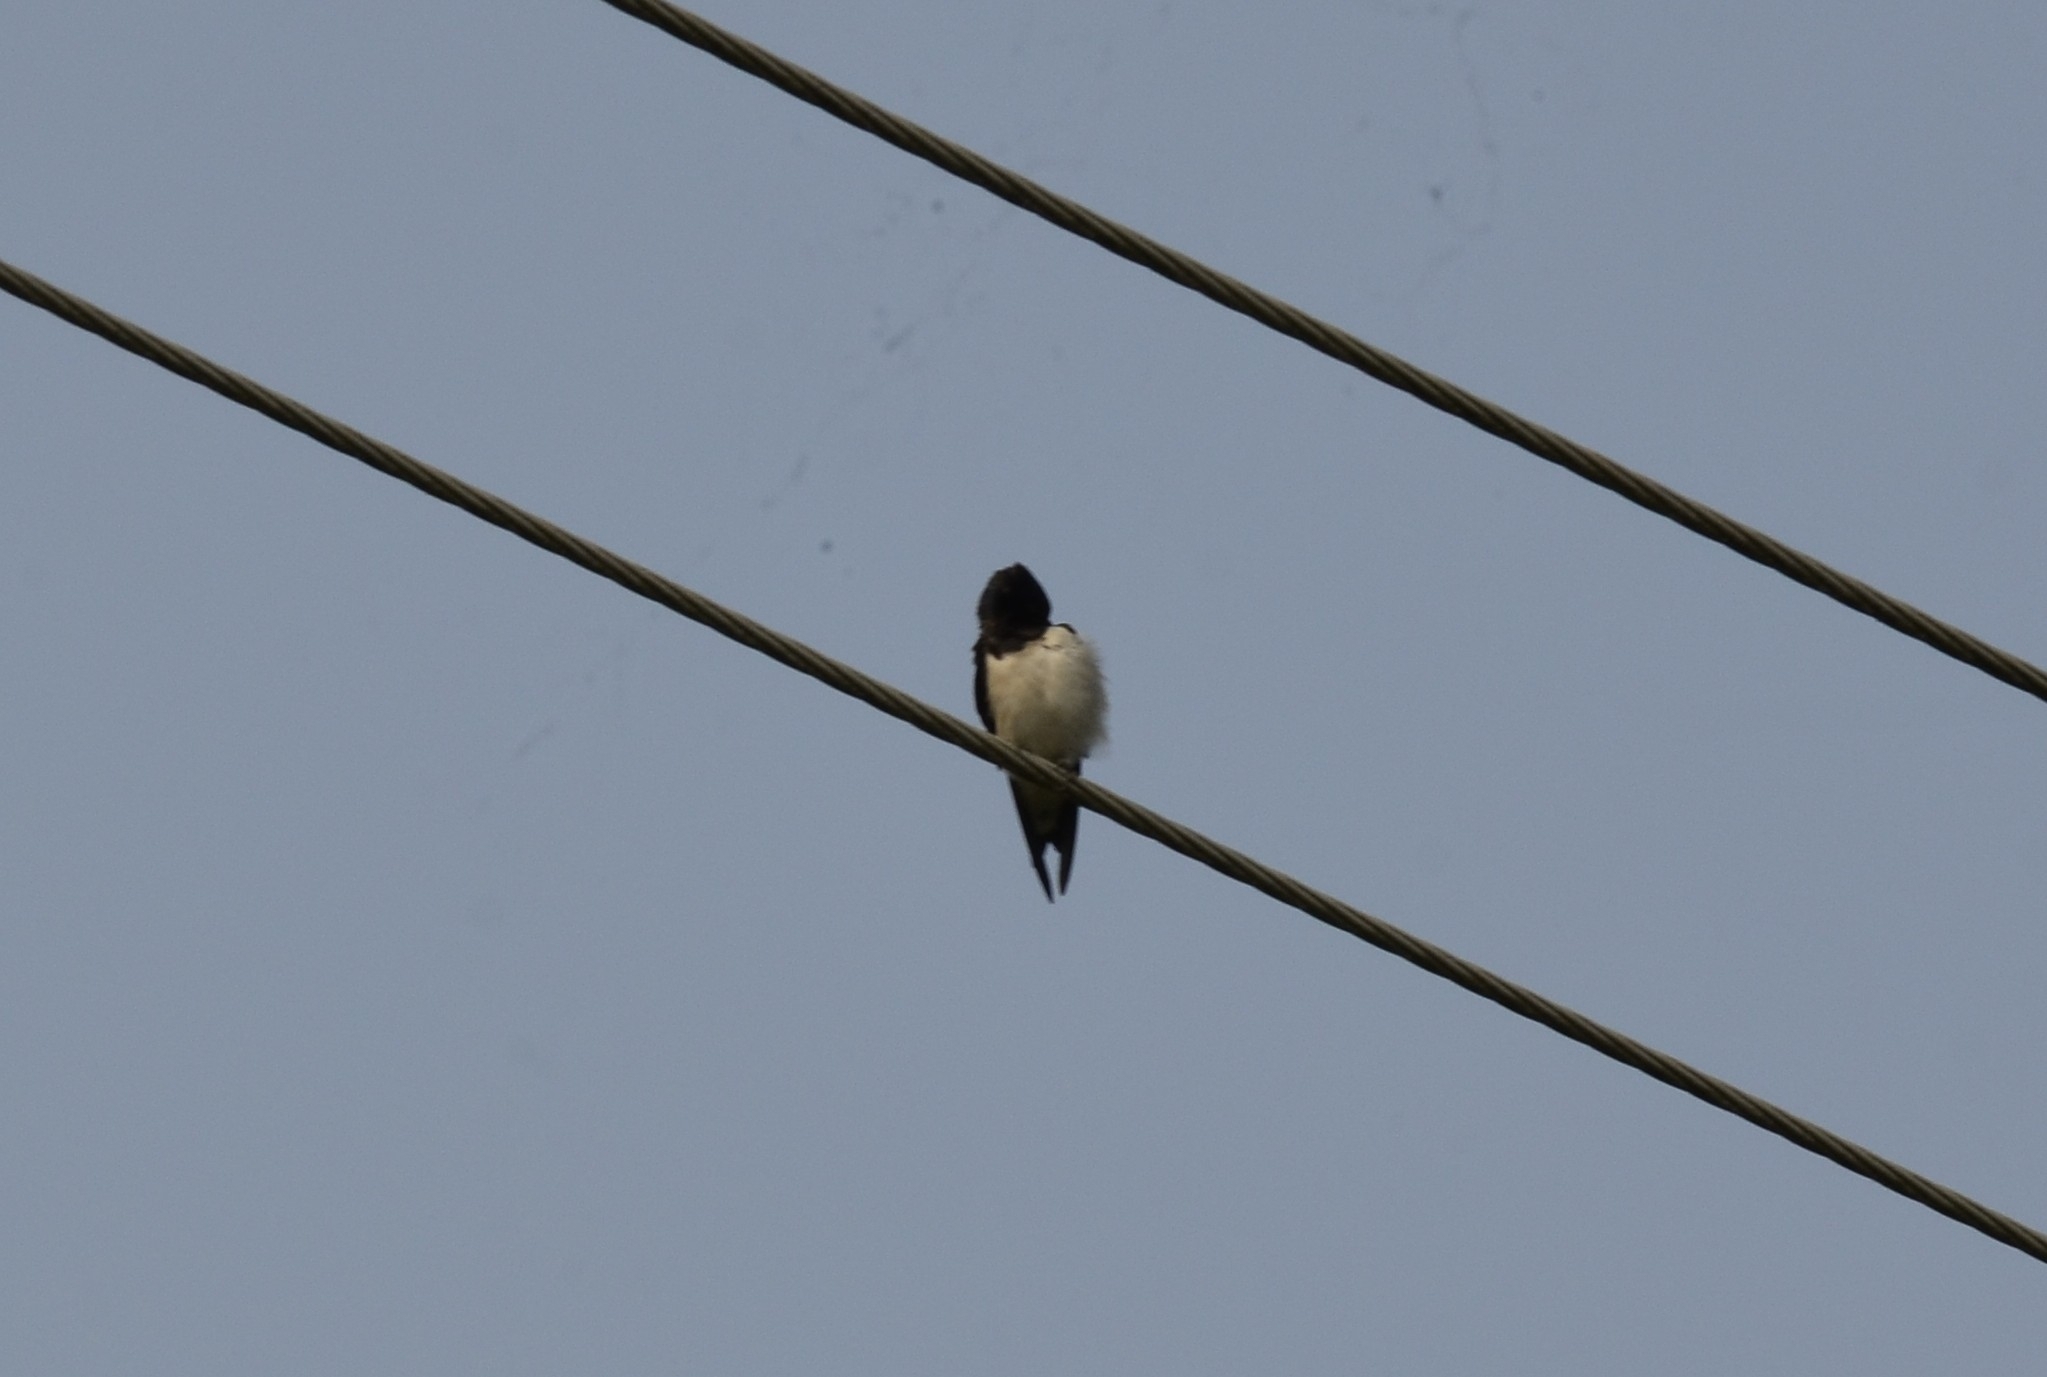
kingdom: Animalia
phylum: Chordata
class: Aves
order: Passeriformes
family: Hirundinidae
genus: Hirundo
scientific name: Hirundo rustica
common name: Barn swallow
